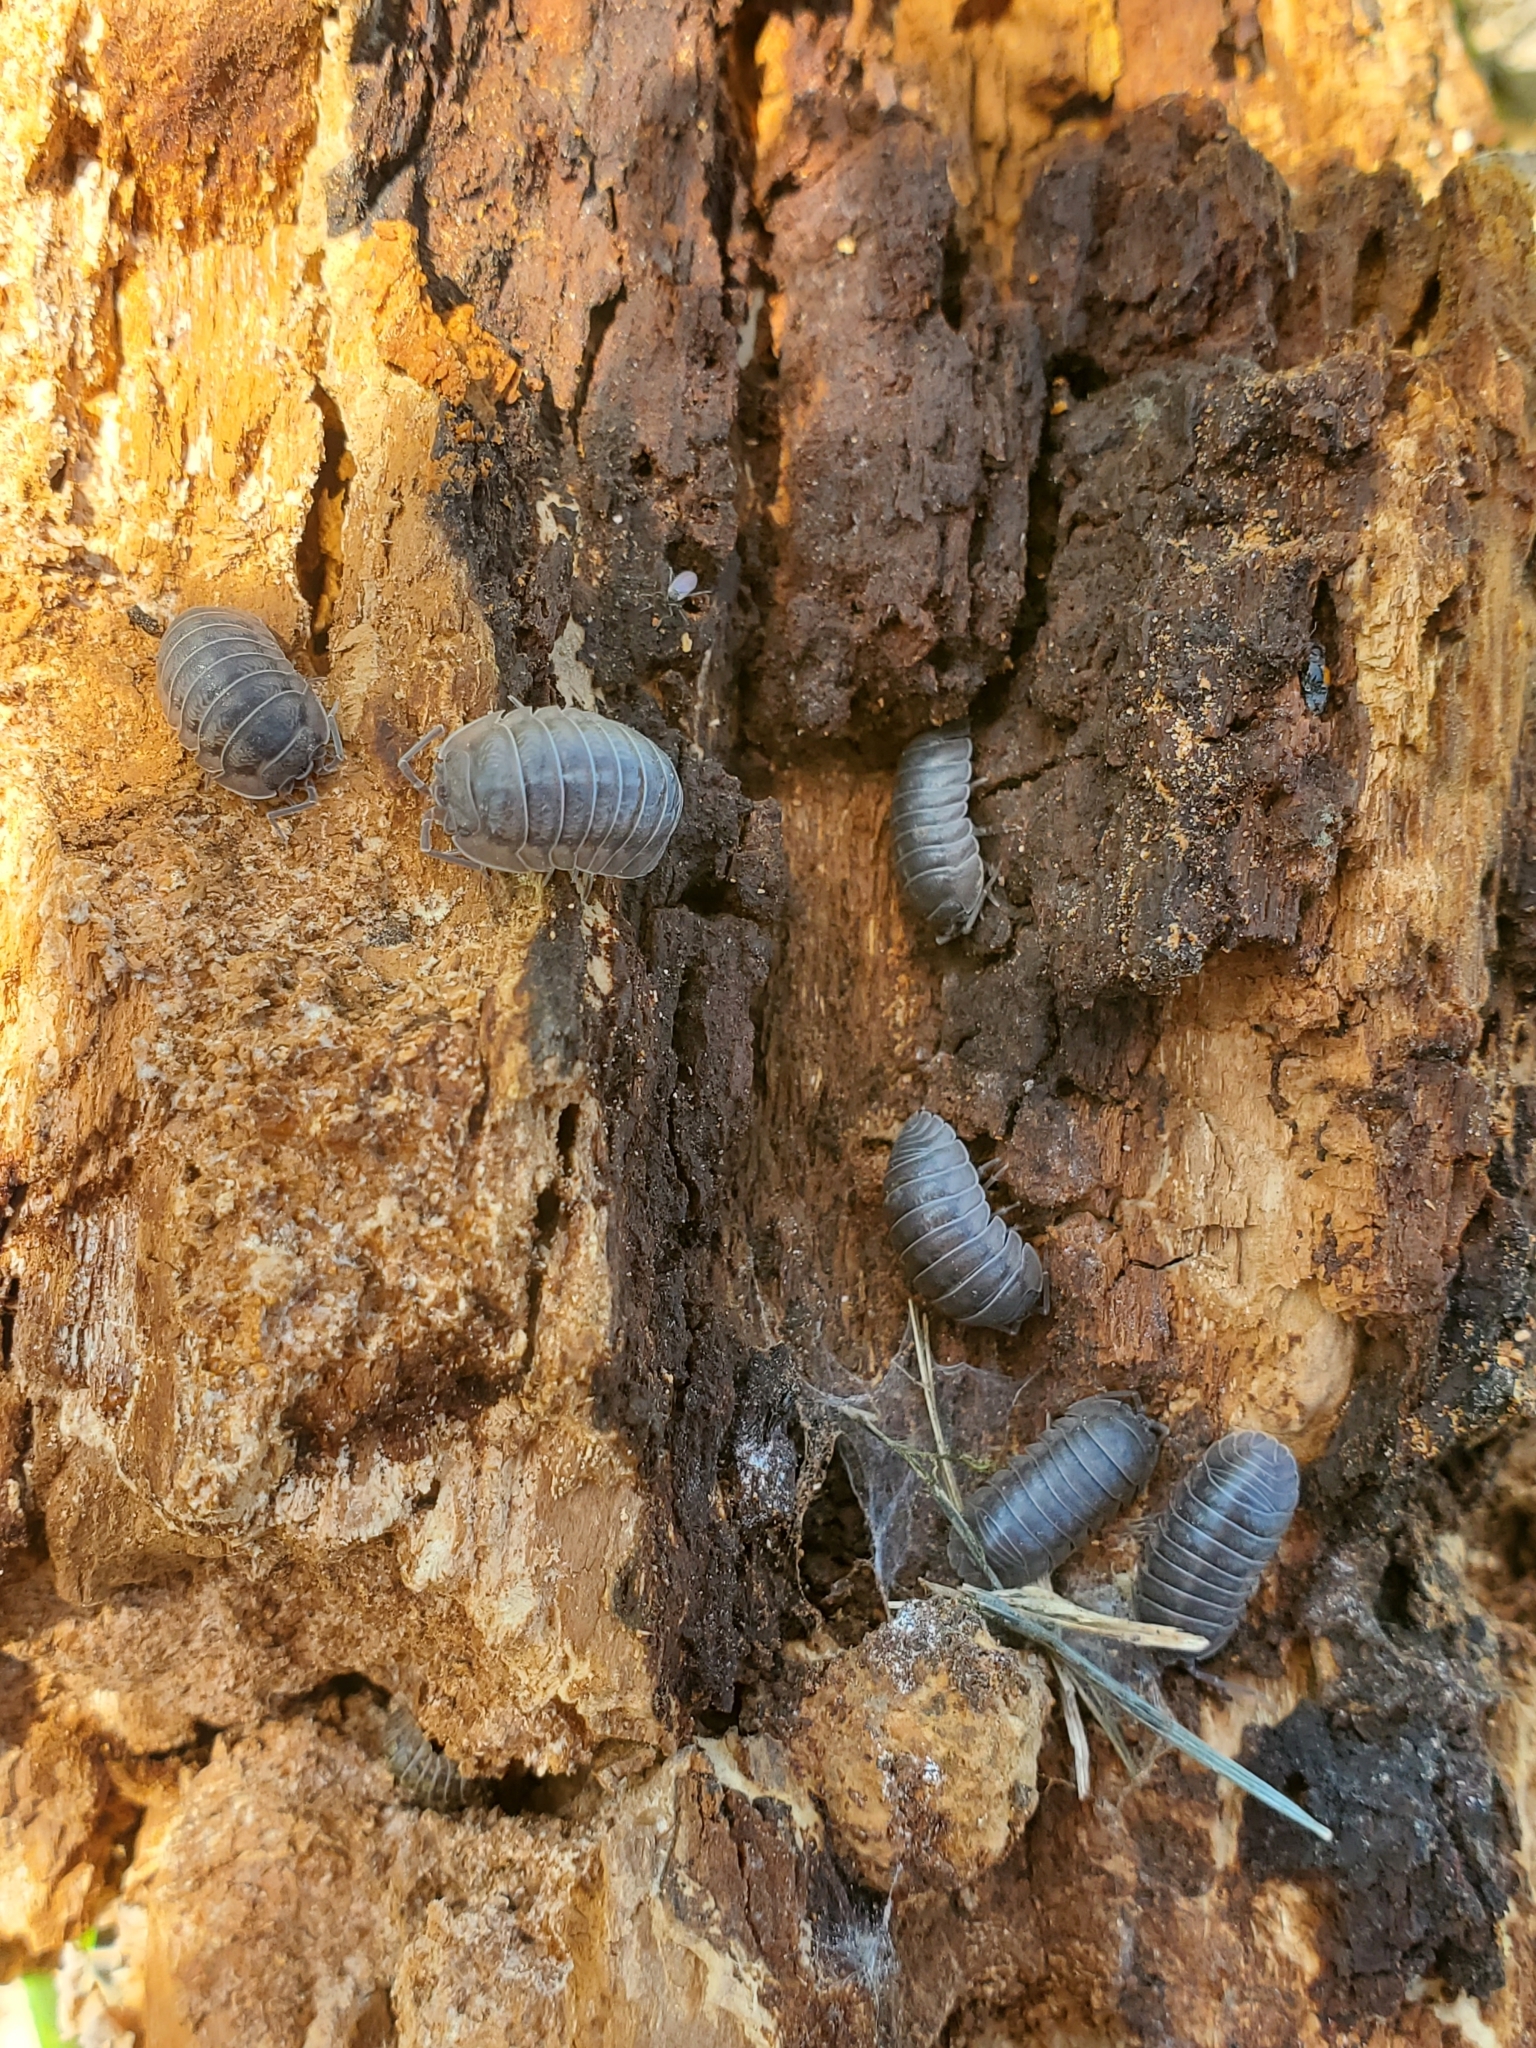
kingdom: Animalia
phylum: Arthropoda
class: Malacostraca
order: Isopoda
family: Armadillidiidae
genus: Armadillidium
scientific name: Armadillidium nasatum
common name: Isopod
